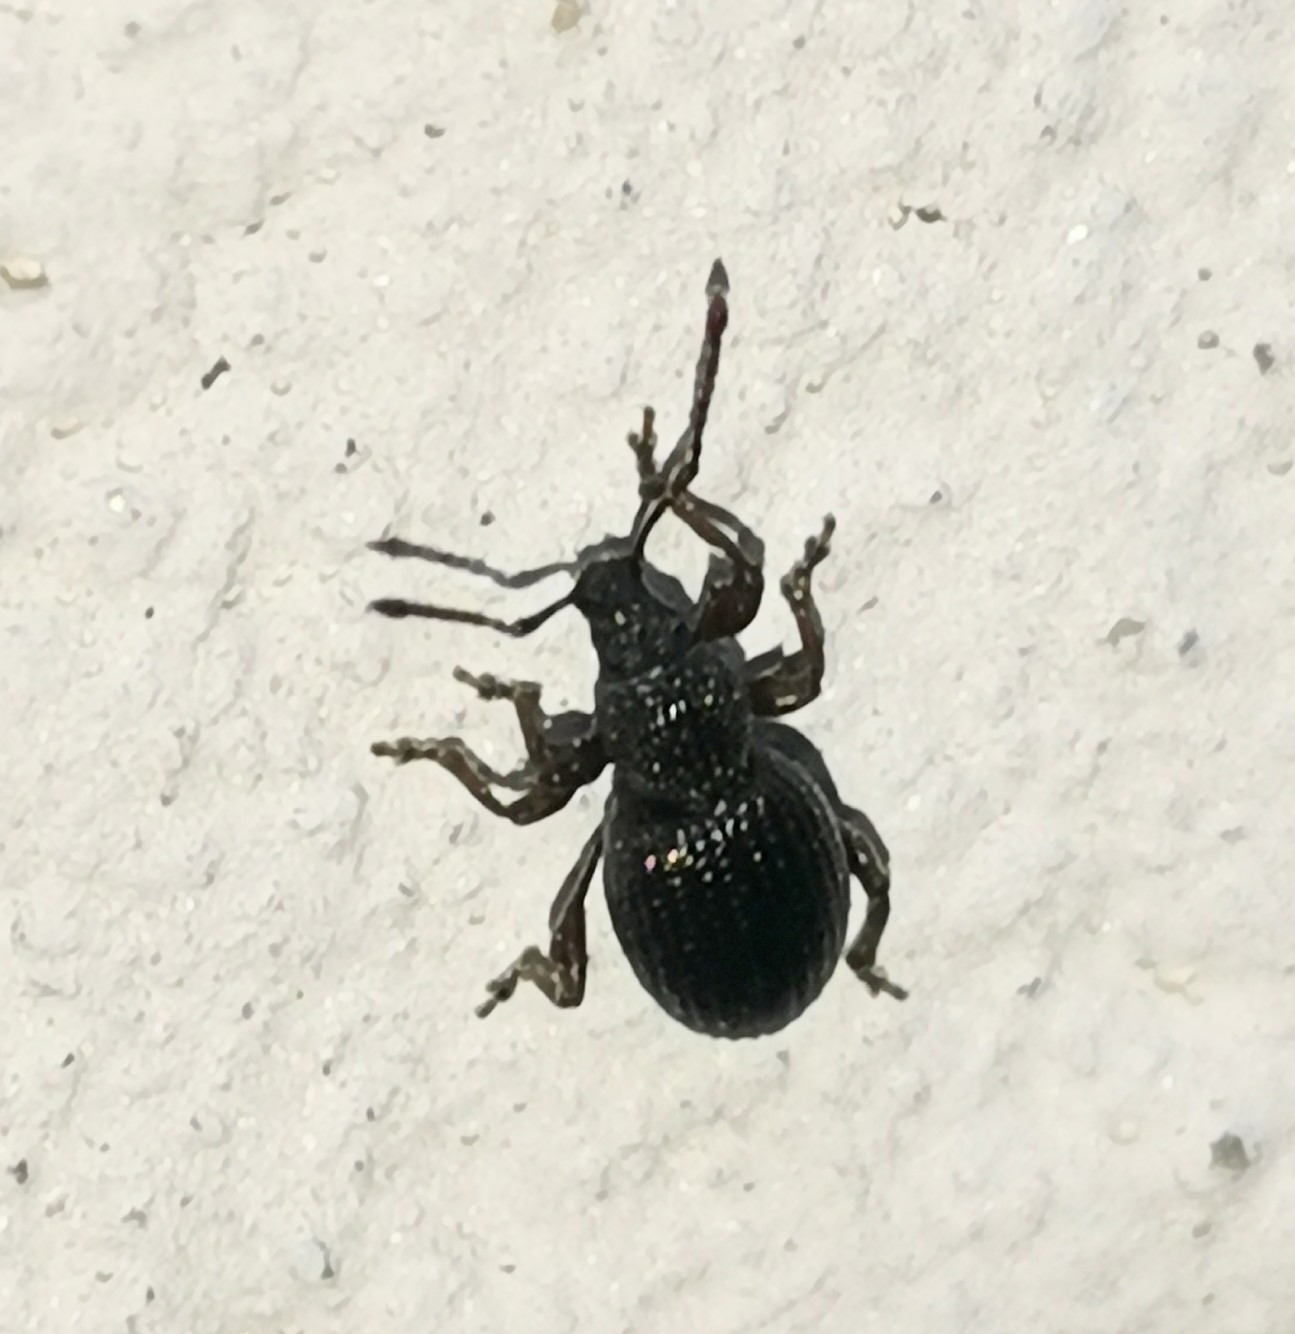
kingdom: Animalia
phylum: Arthropoda
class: Insecta
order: Coleoptera
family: Curculionidae
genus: Otiorhynchus
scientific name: Otiorhynchus ovatus
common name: Strawberry root weevil
